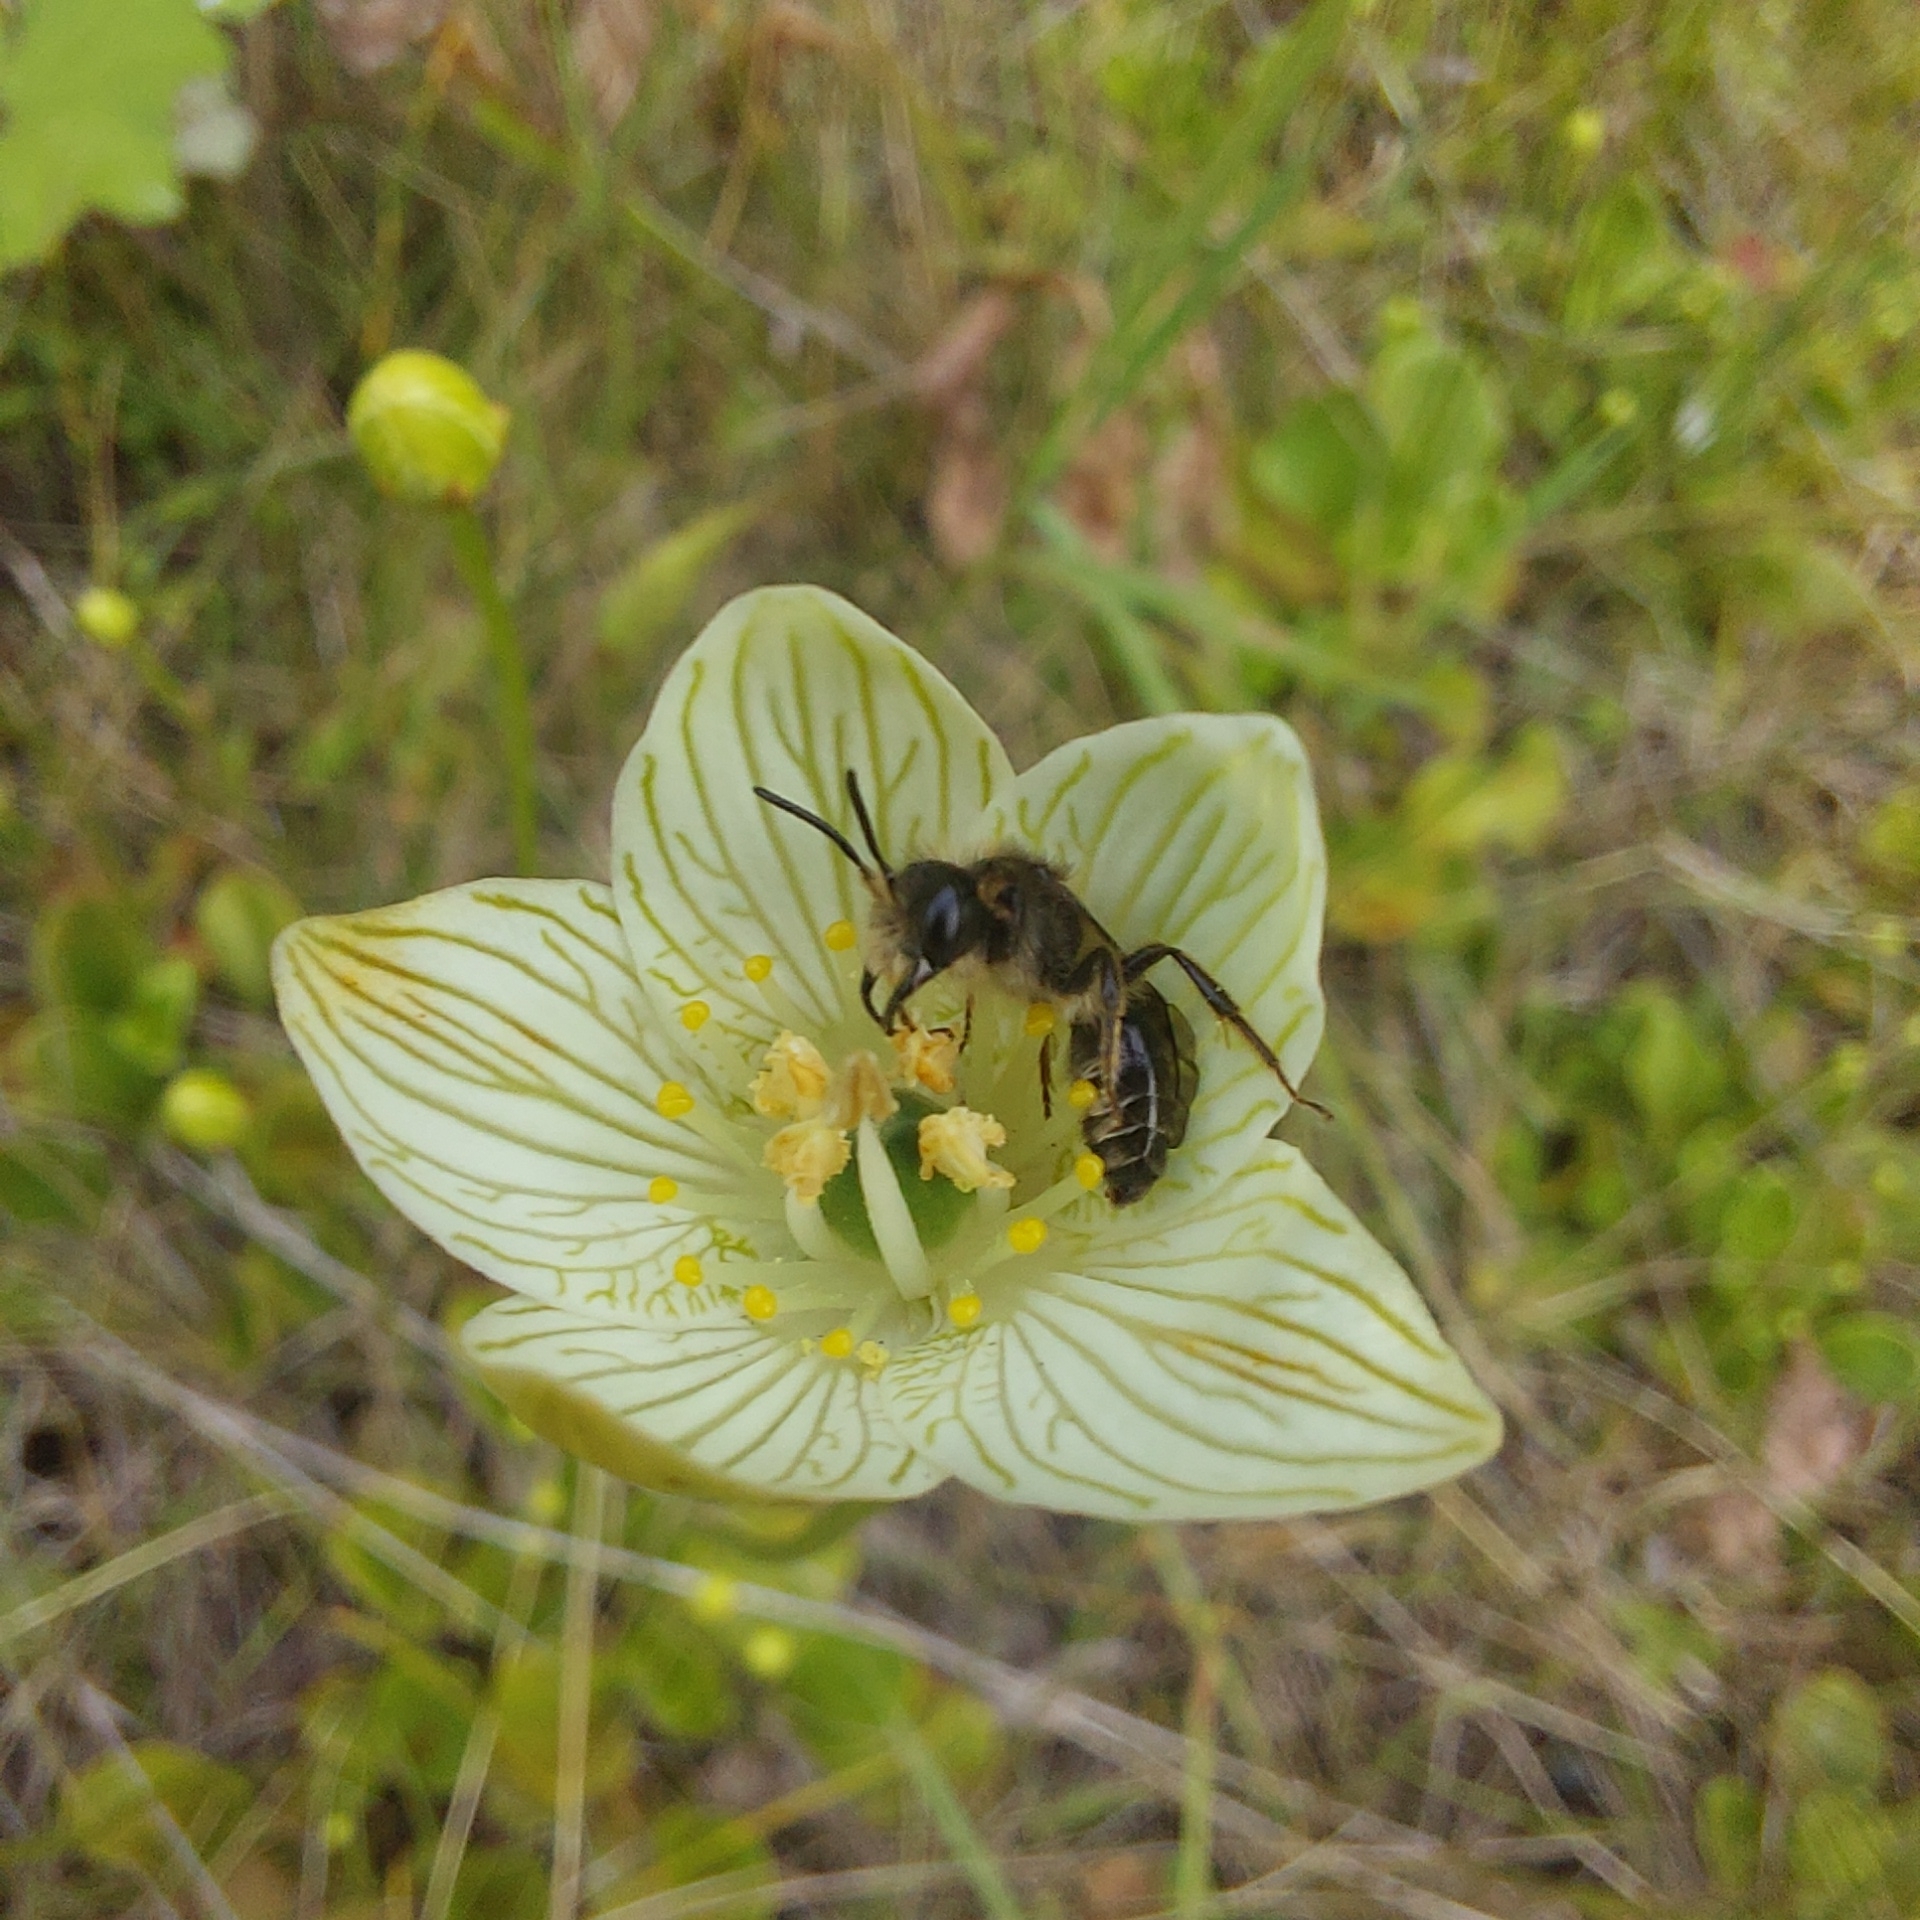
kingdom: Plantae
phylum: Tracheophyta
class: Magnoliopsida
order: Celastrales
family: Parnassiaceae
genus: Parnassia
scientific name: Parnassia glauca
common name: American grass-of-parnassus
